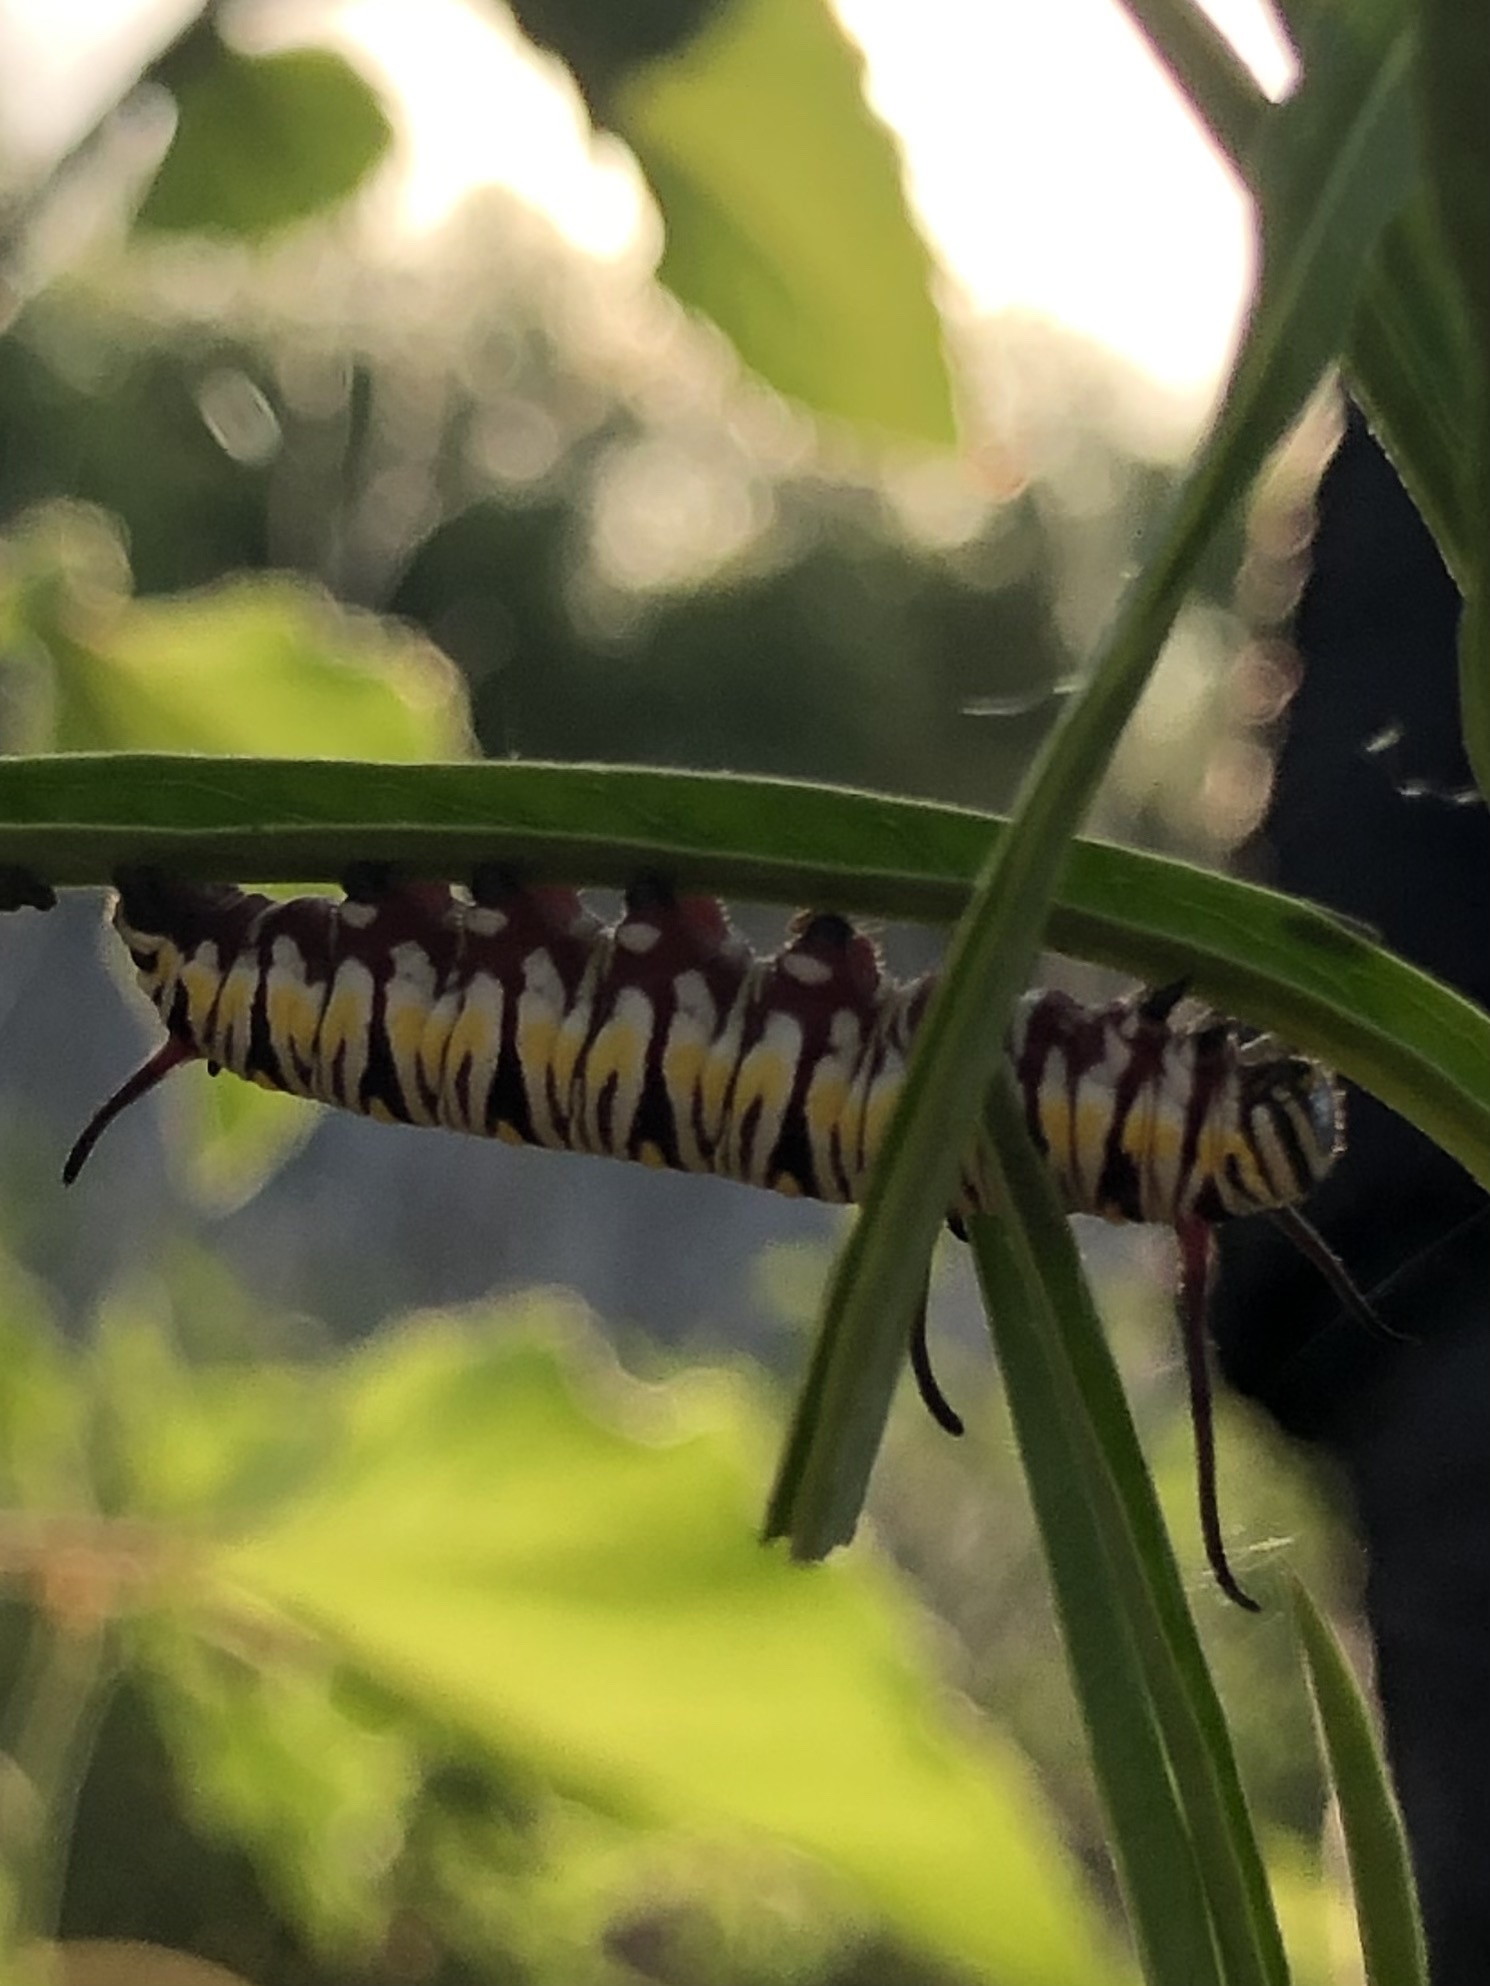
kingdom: Animalia
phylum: Arthropoda
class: Insecta
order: Lepidoptera
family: Nymphalidae
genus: Danaus
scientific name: Danaus gilippus
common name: Queen
